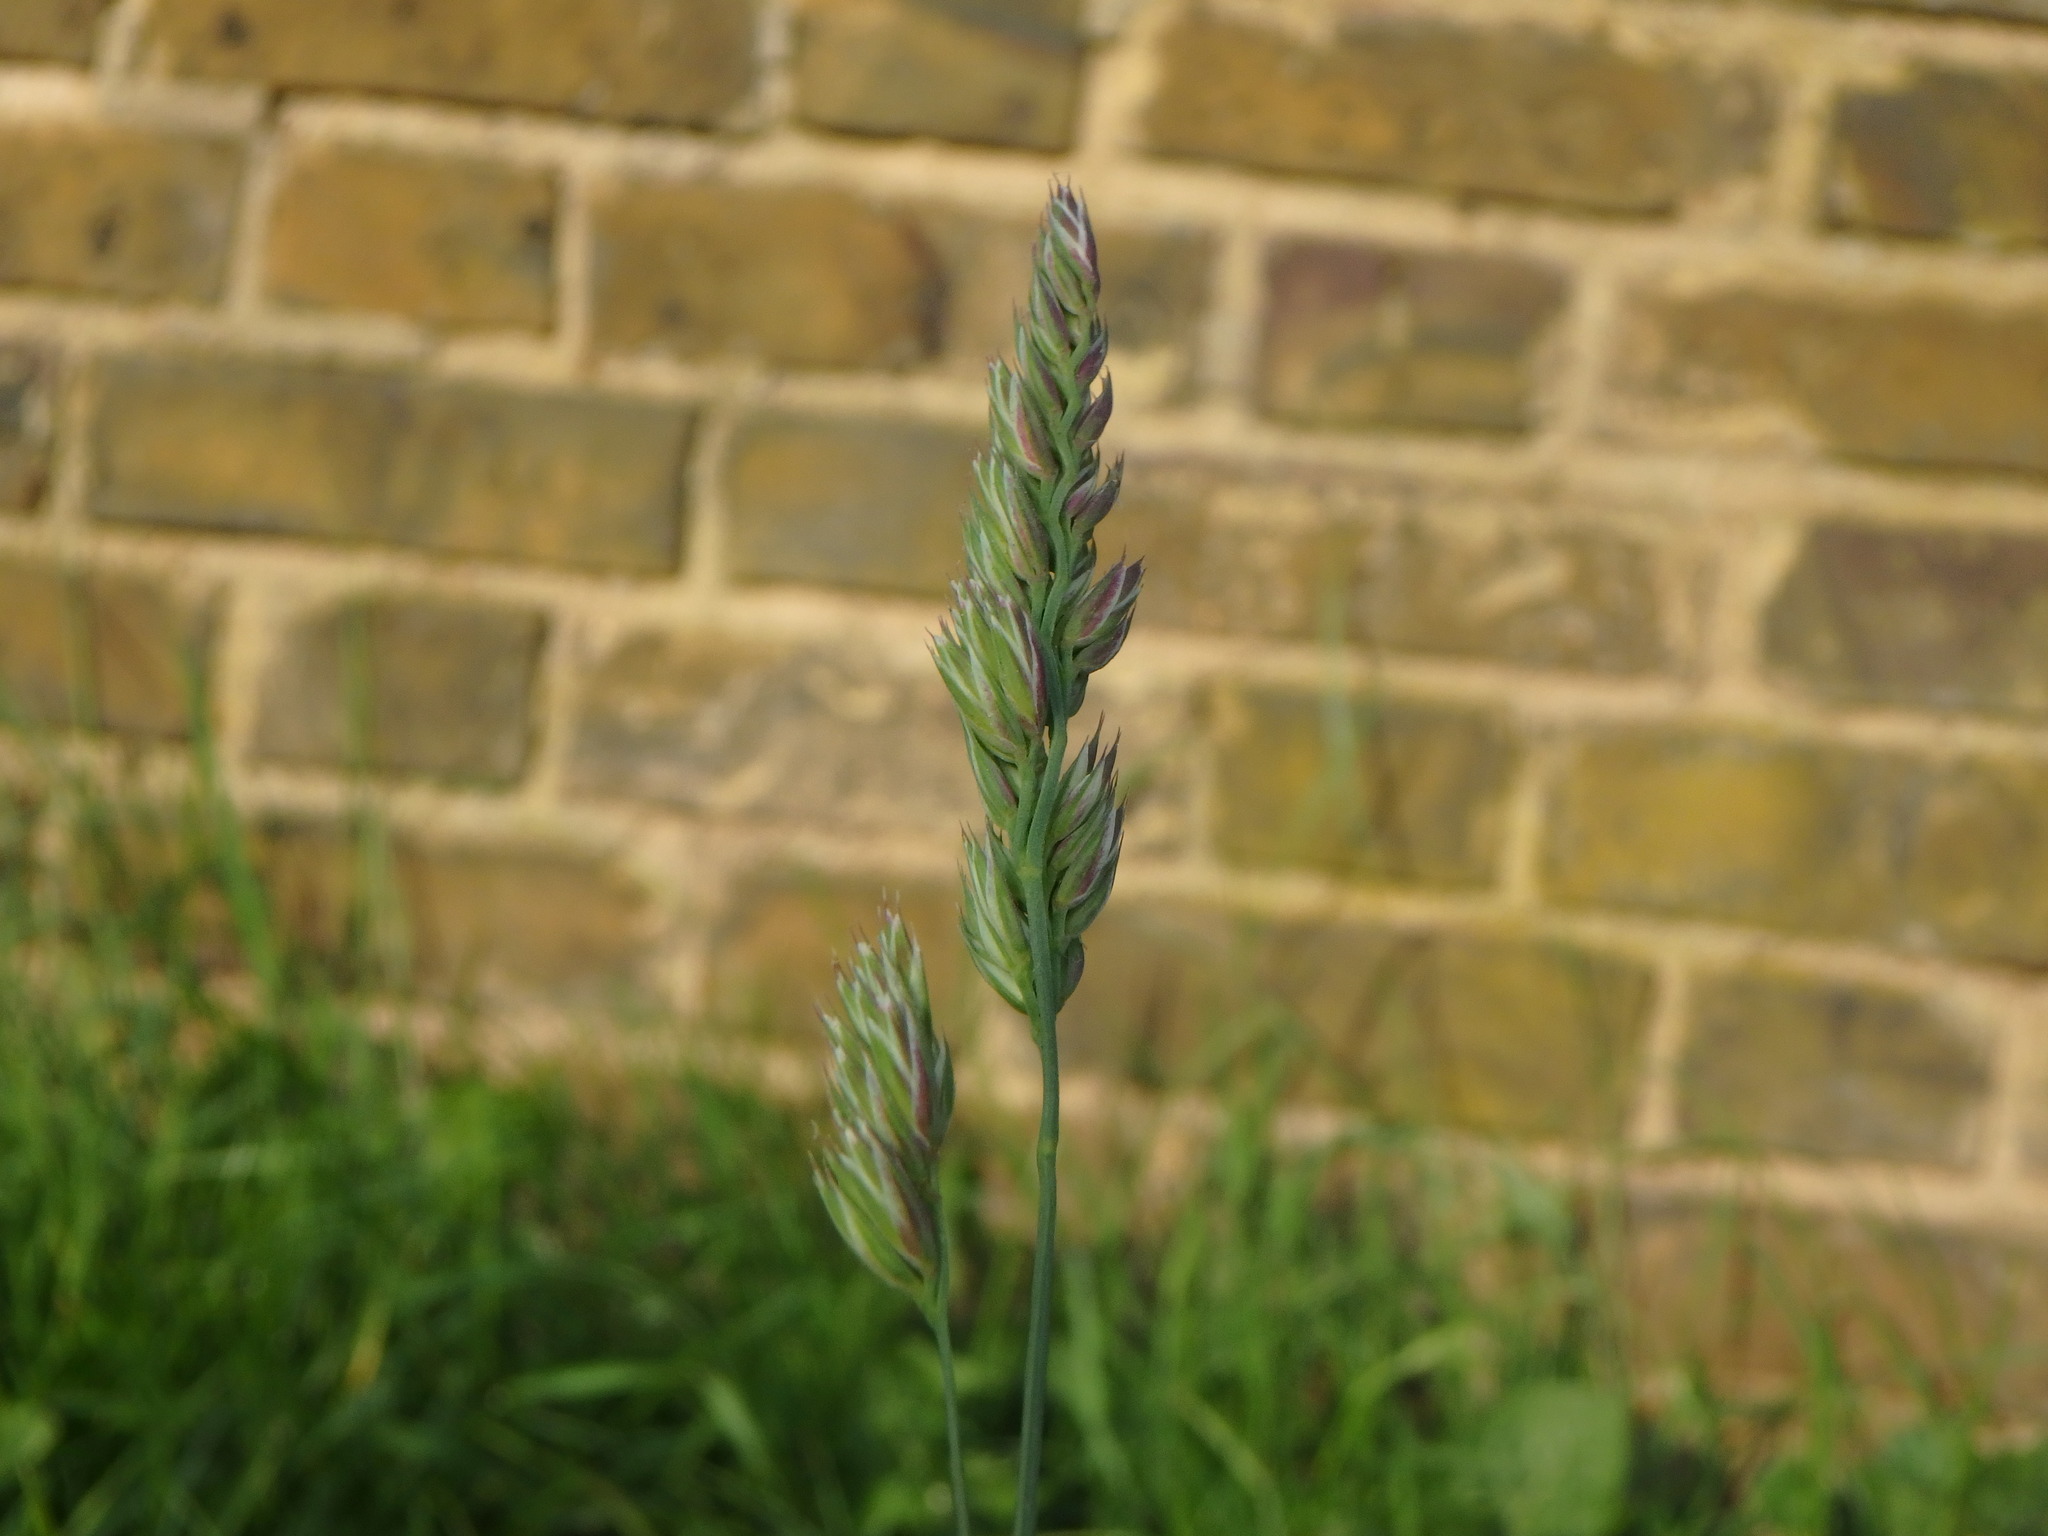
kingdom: Plantae
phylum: Tracheophyta
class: Liliopsida
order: Poales
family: Poaceae
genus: Dactylis
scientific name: Dactylis glomerata
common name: Orchardgrass
